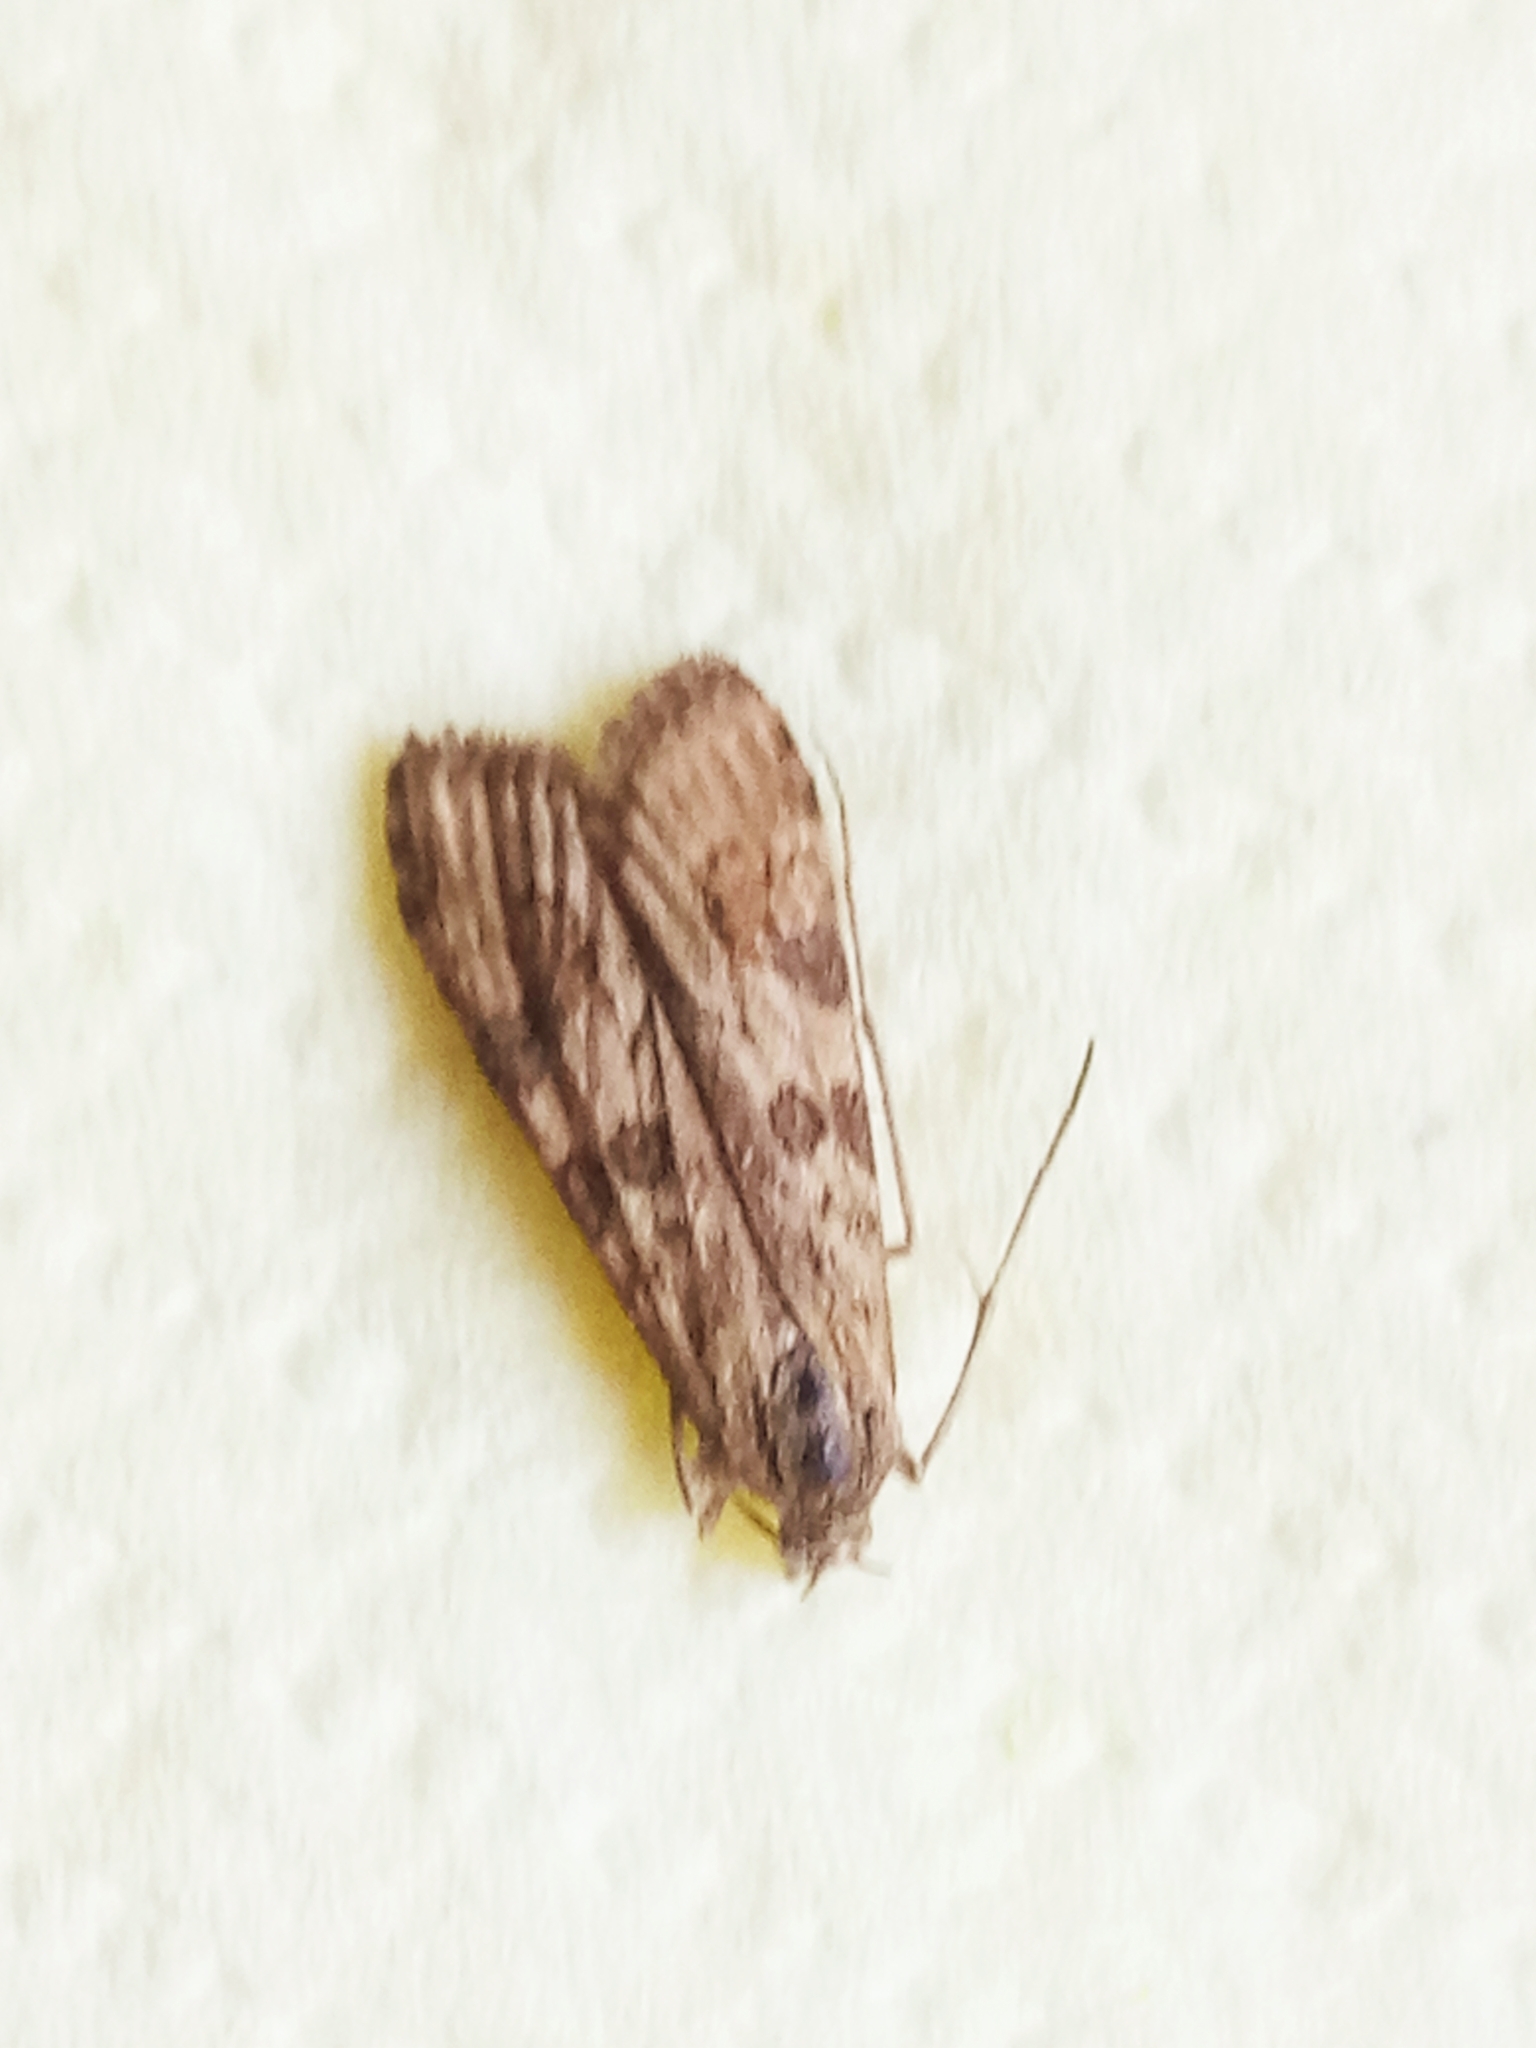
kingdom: Animalia
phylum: Arthropoda
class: Insecta
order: Lepidoptera
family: Crambidae
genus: Nomophila
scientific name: Nomophila noctuella
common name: Rush veneer
